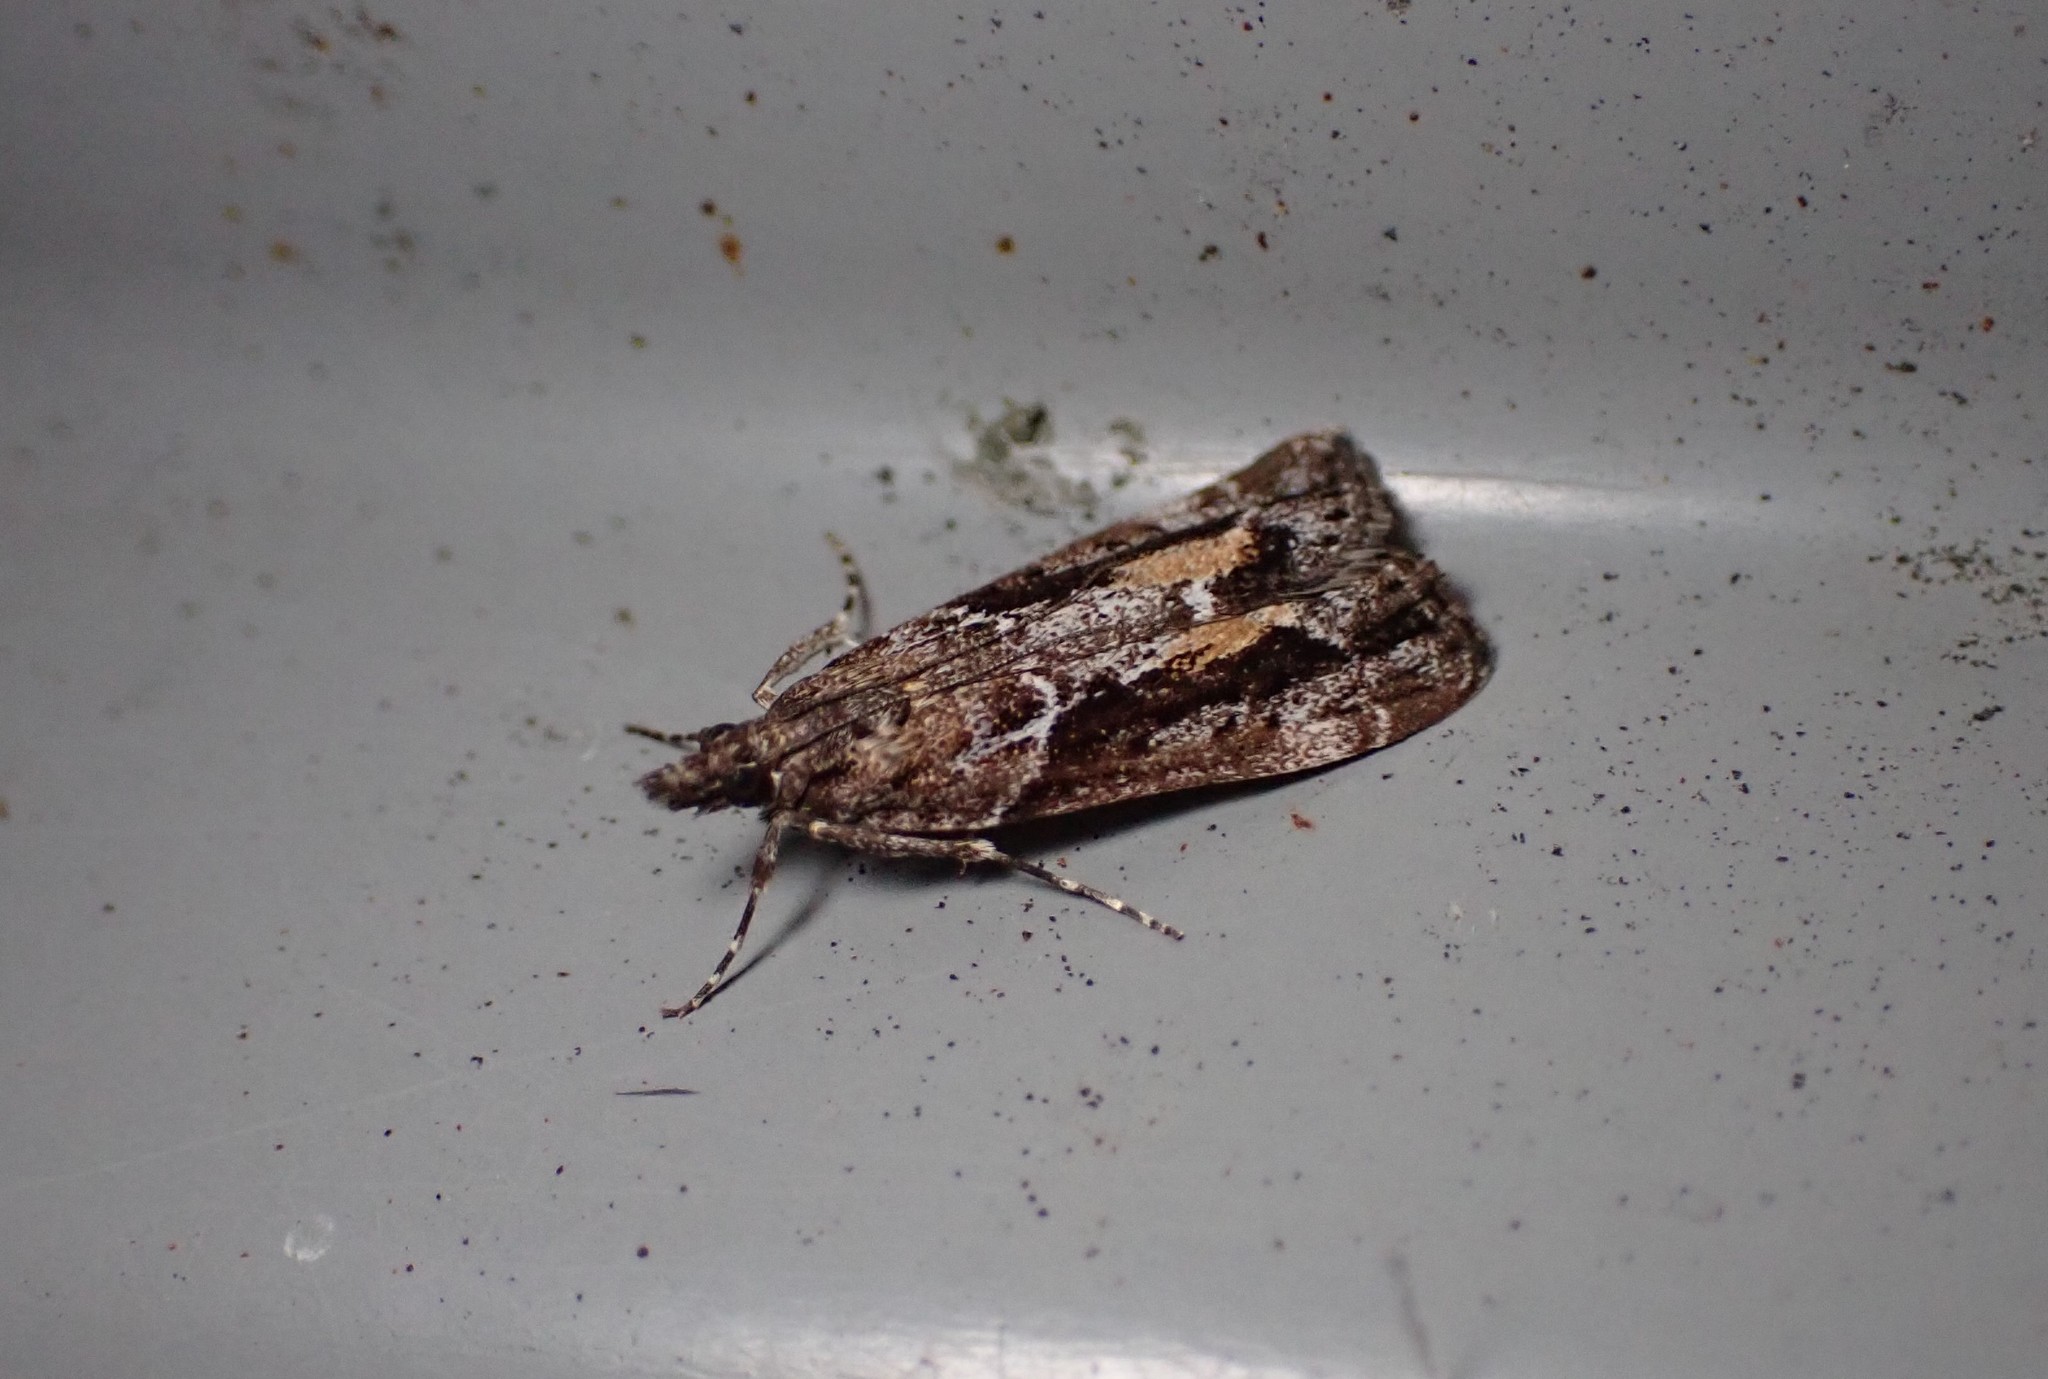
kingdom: Animalia
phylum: Arthropoda
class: Insecta
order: Lepidoptera
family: Crambidae
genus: Eudonia
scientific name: Eudonia submarginalis
